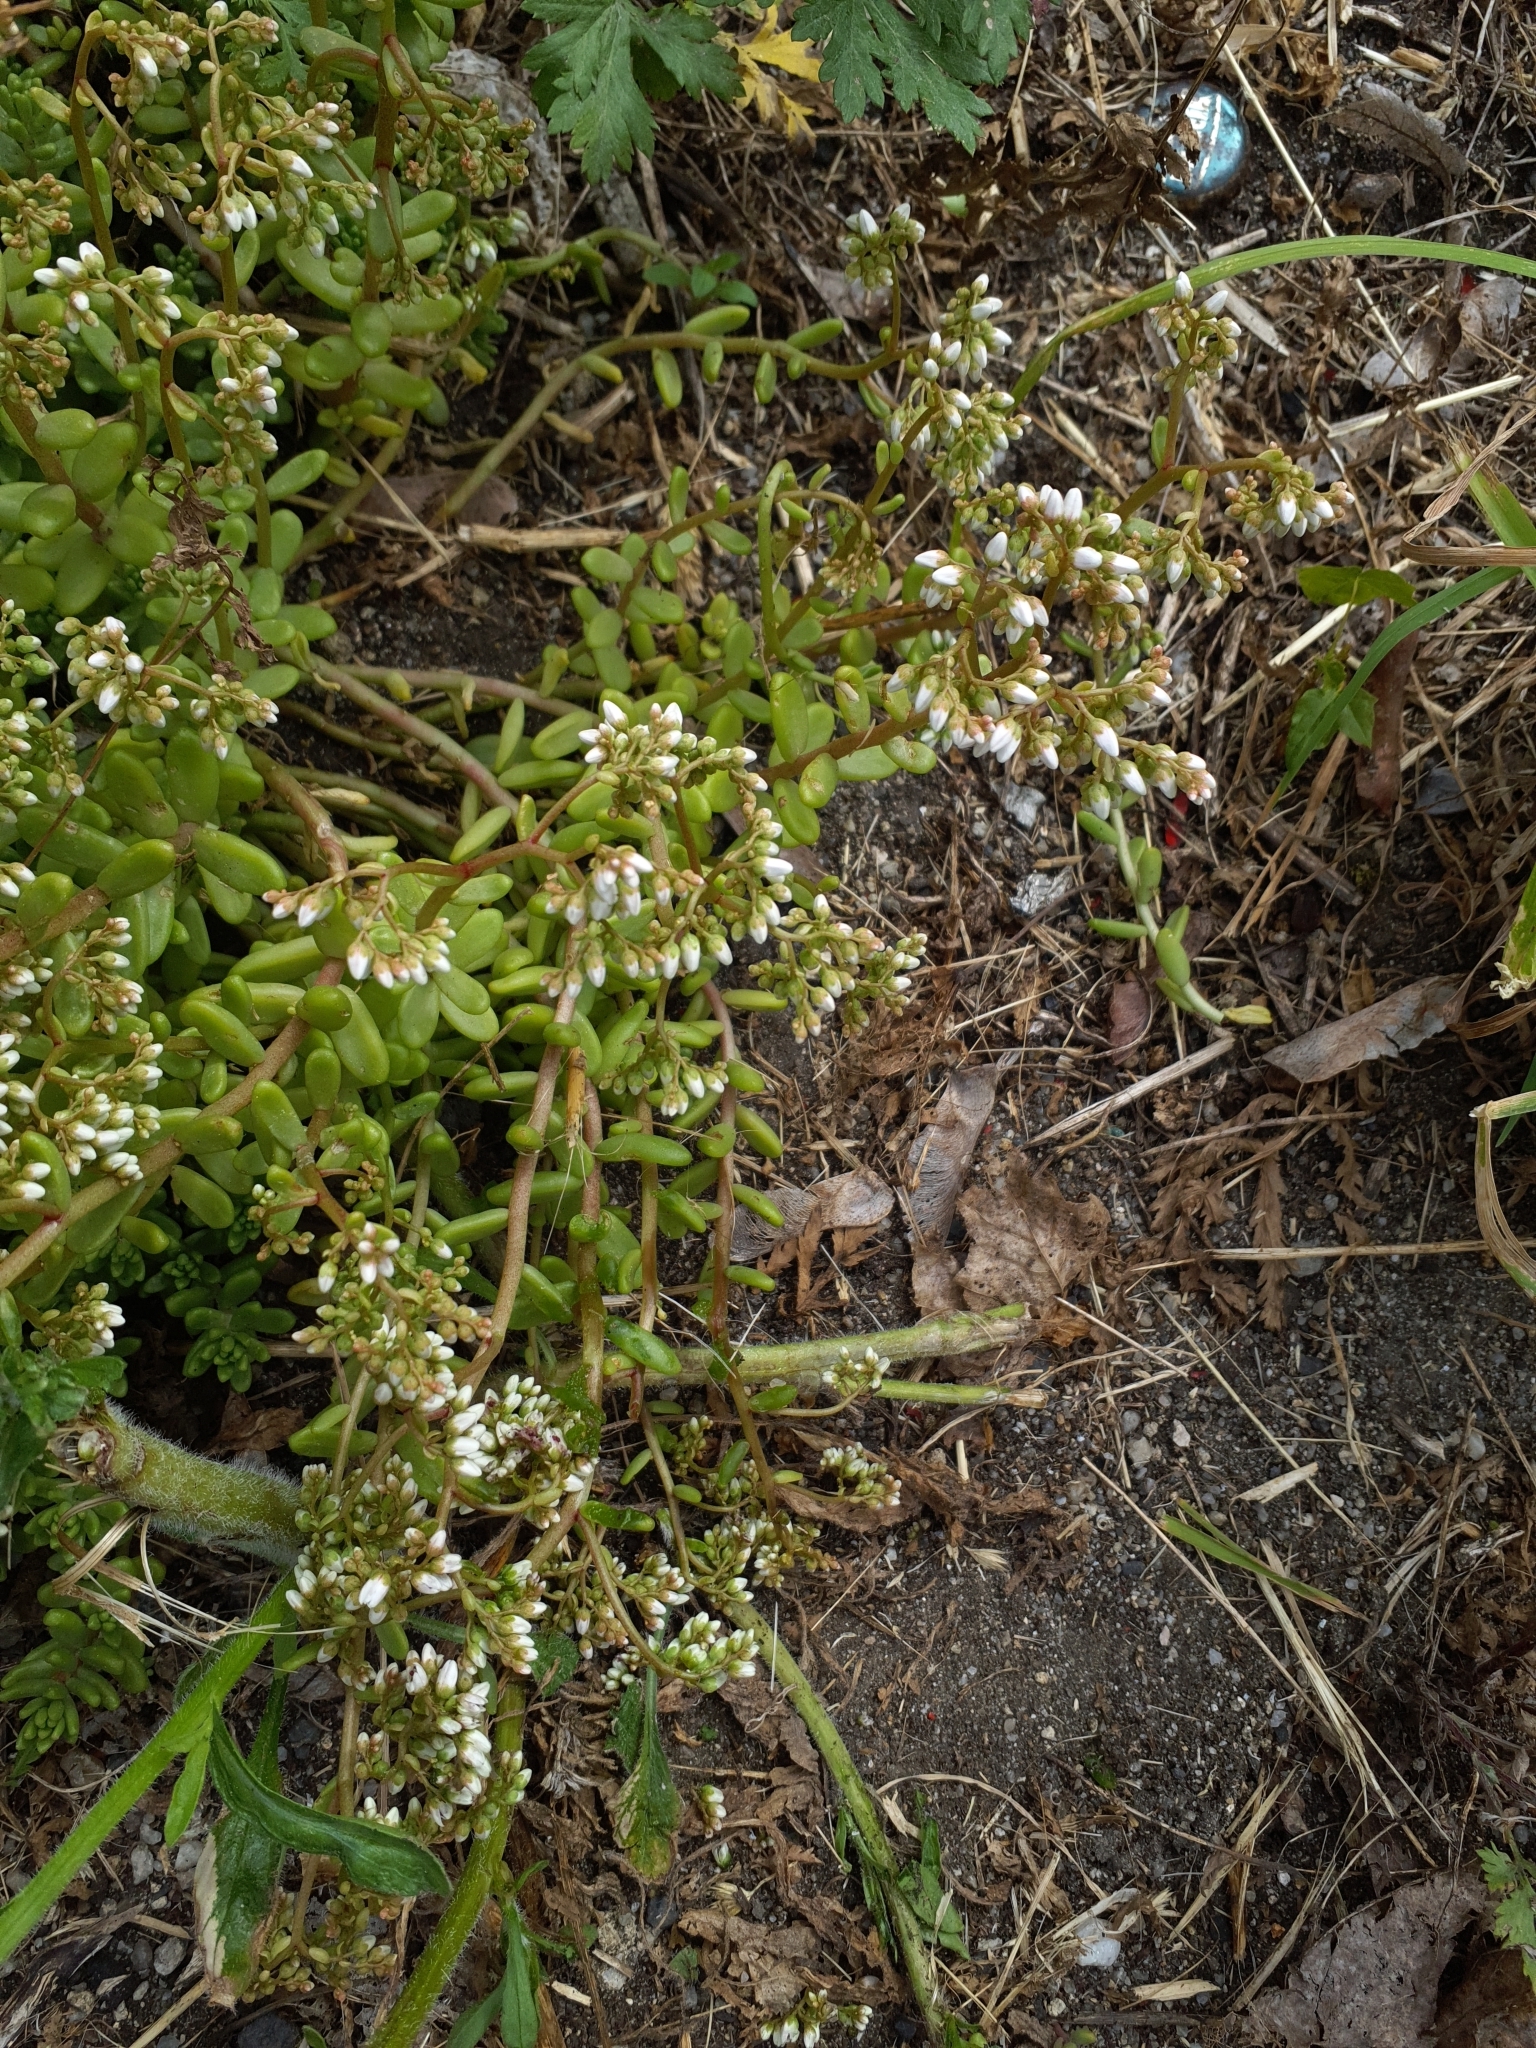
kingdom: Plantae
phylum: Tracheophyta
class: Magnoliopsida
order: Saxifragales
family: Crassulaceae
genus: Sedum
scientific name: Sedum album
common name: White stonecrop
